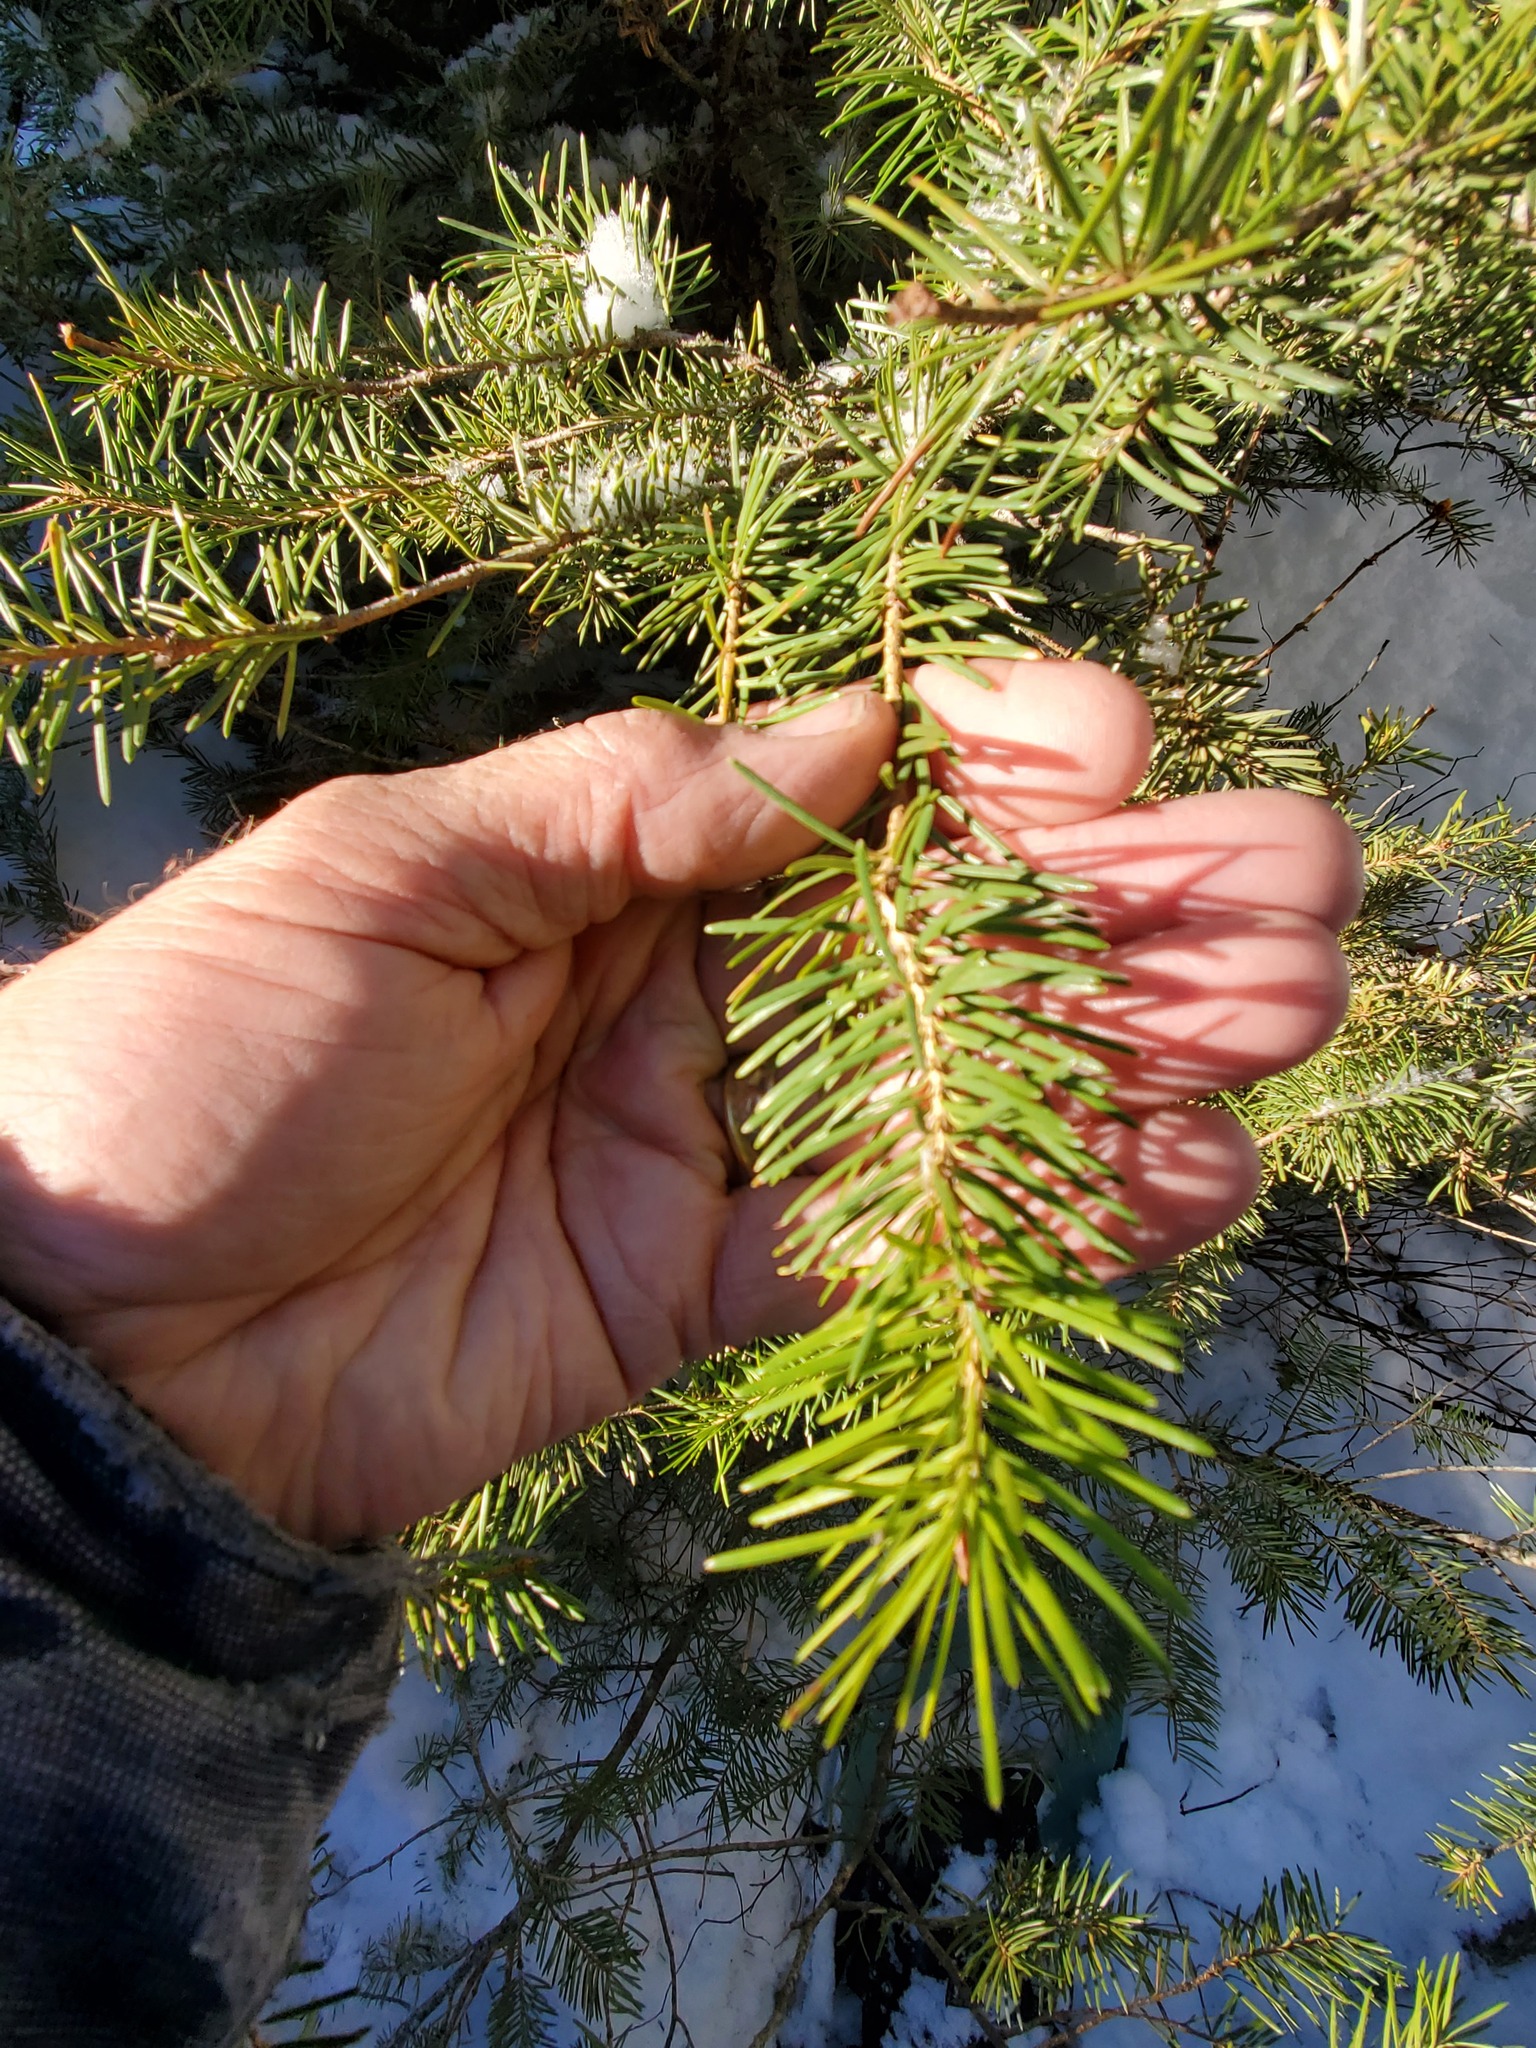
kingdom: Plantae
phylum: Tracheophyta
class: Pinopsida
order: Pinales
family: Pinaceae
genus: Pseudotsuga
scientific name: Pseudotsuga menziesii
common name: Douglas fir
